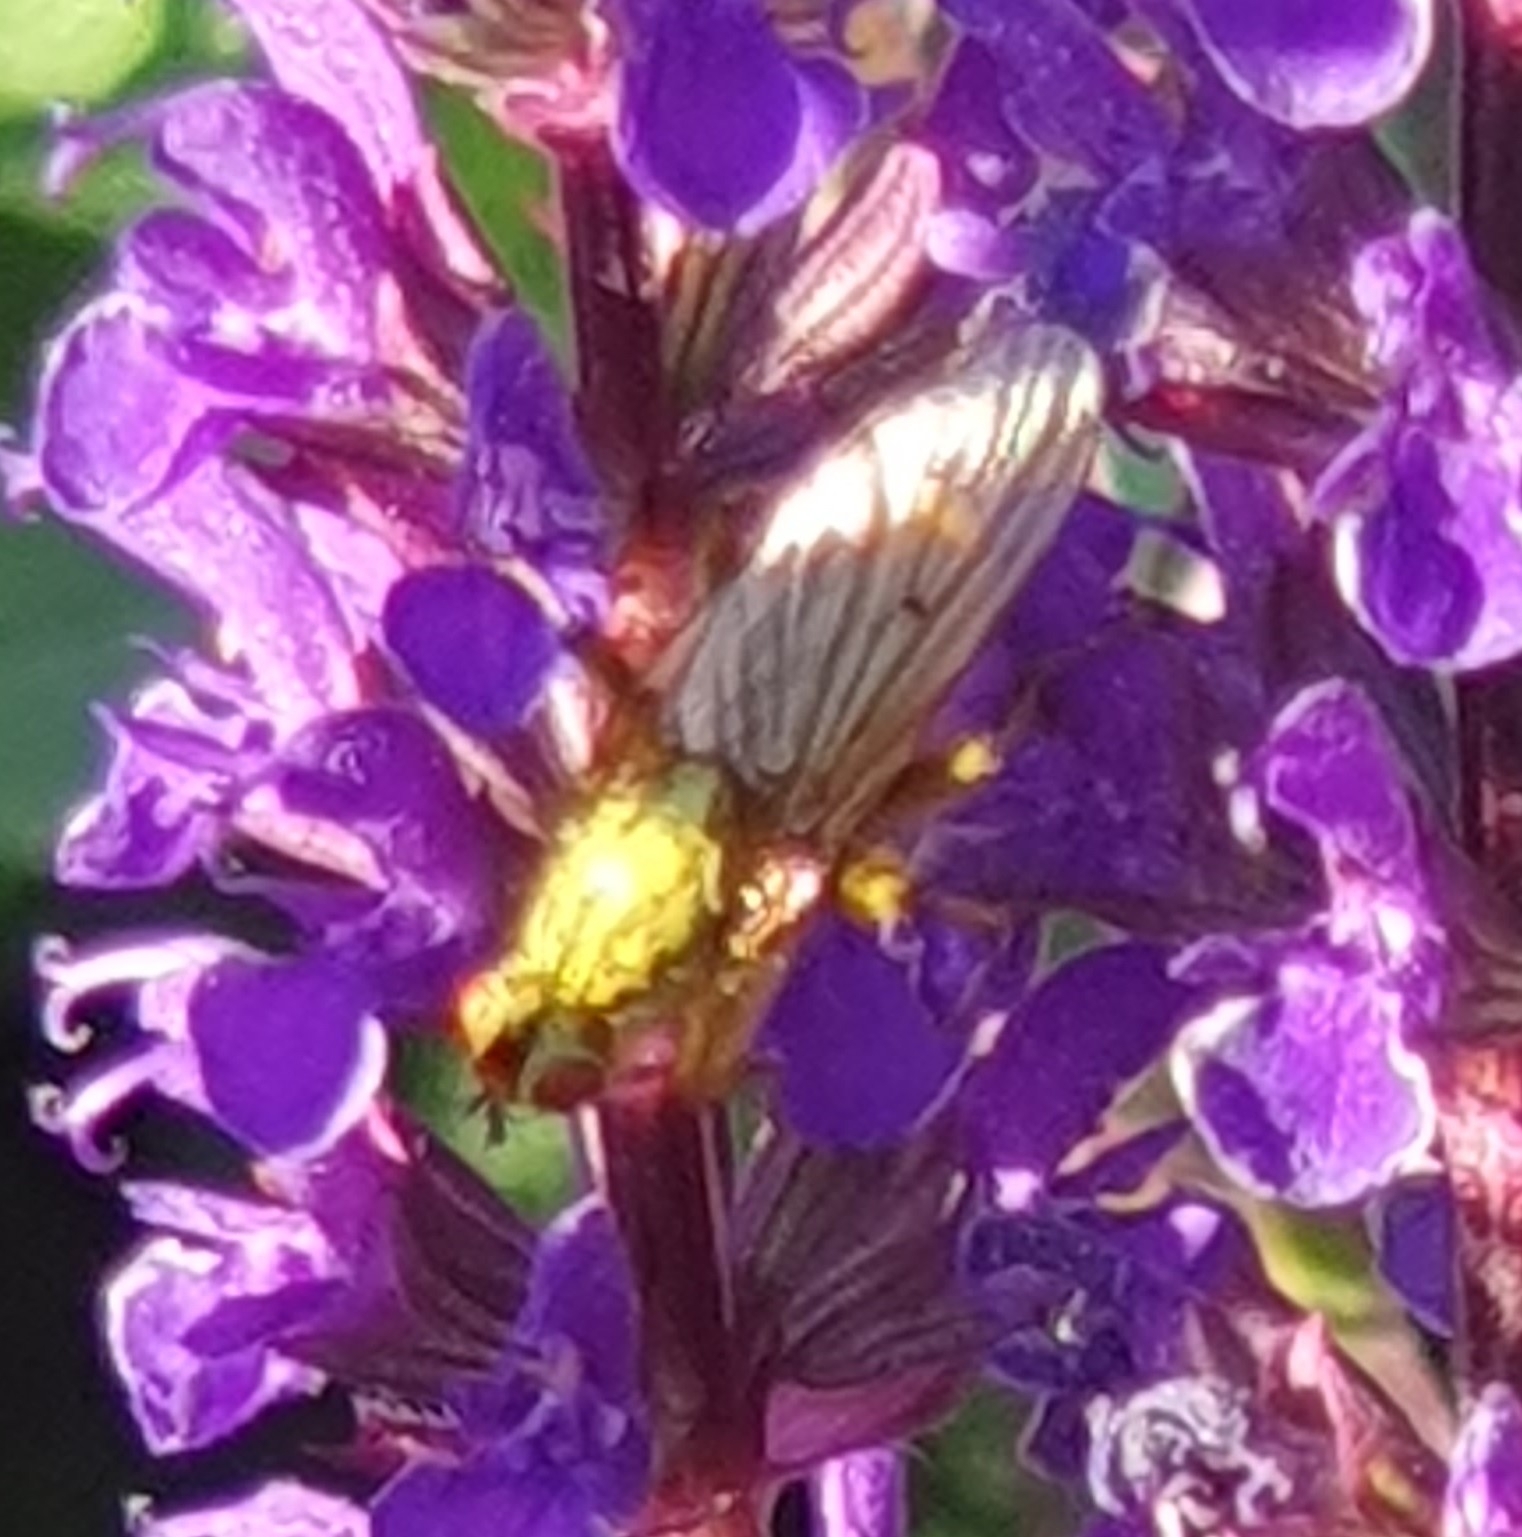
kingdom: Animalia
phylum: Arthropoda
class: Insecta
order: Diptera
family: Scathophagidae
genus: Scathophaga
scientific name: Scathophaga stercoraria
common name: Yellow dung fly
